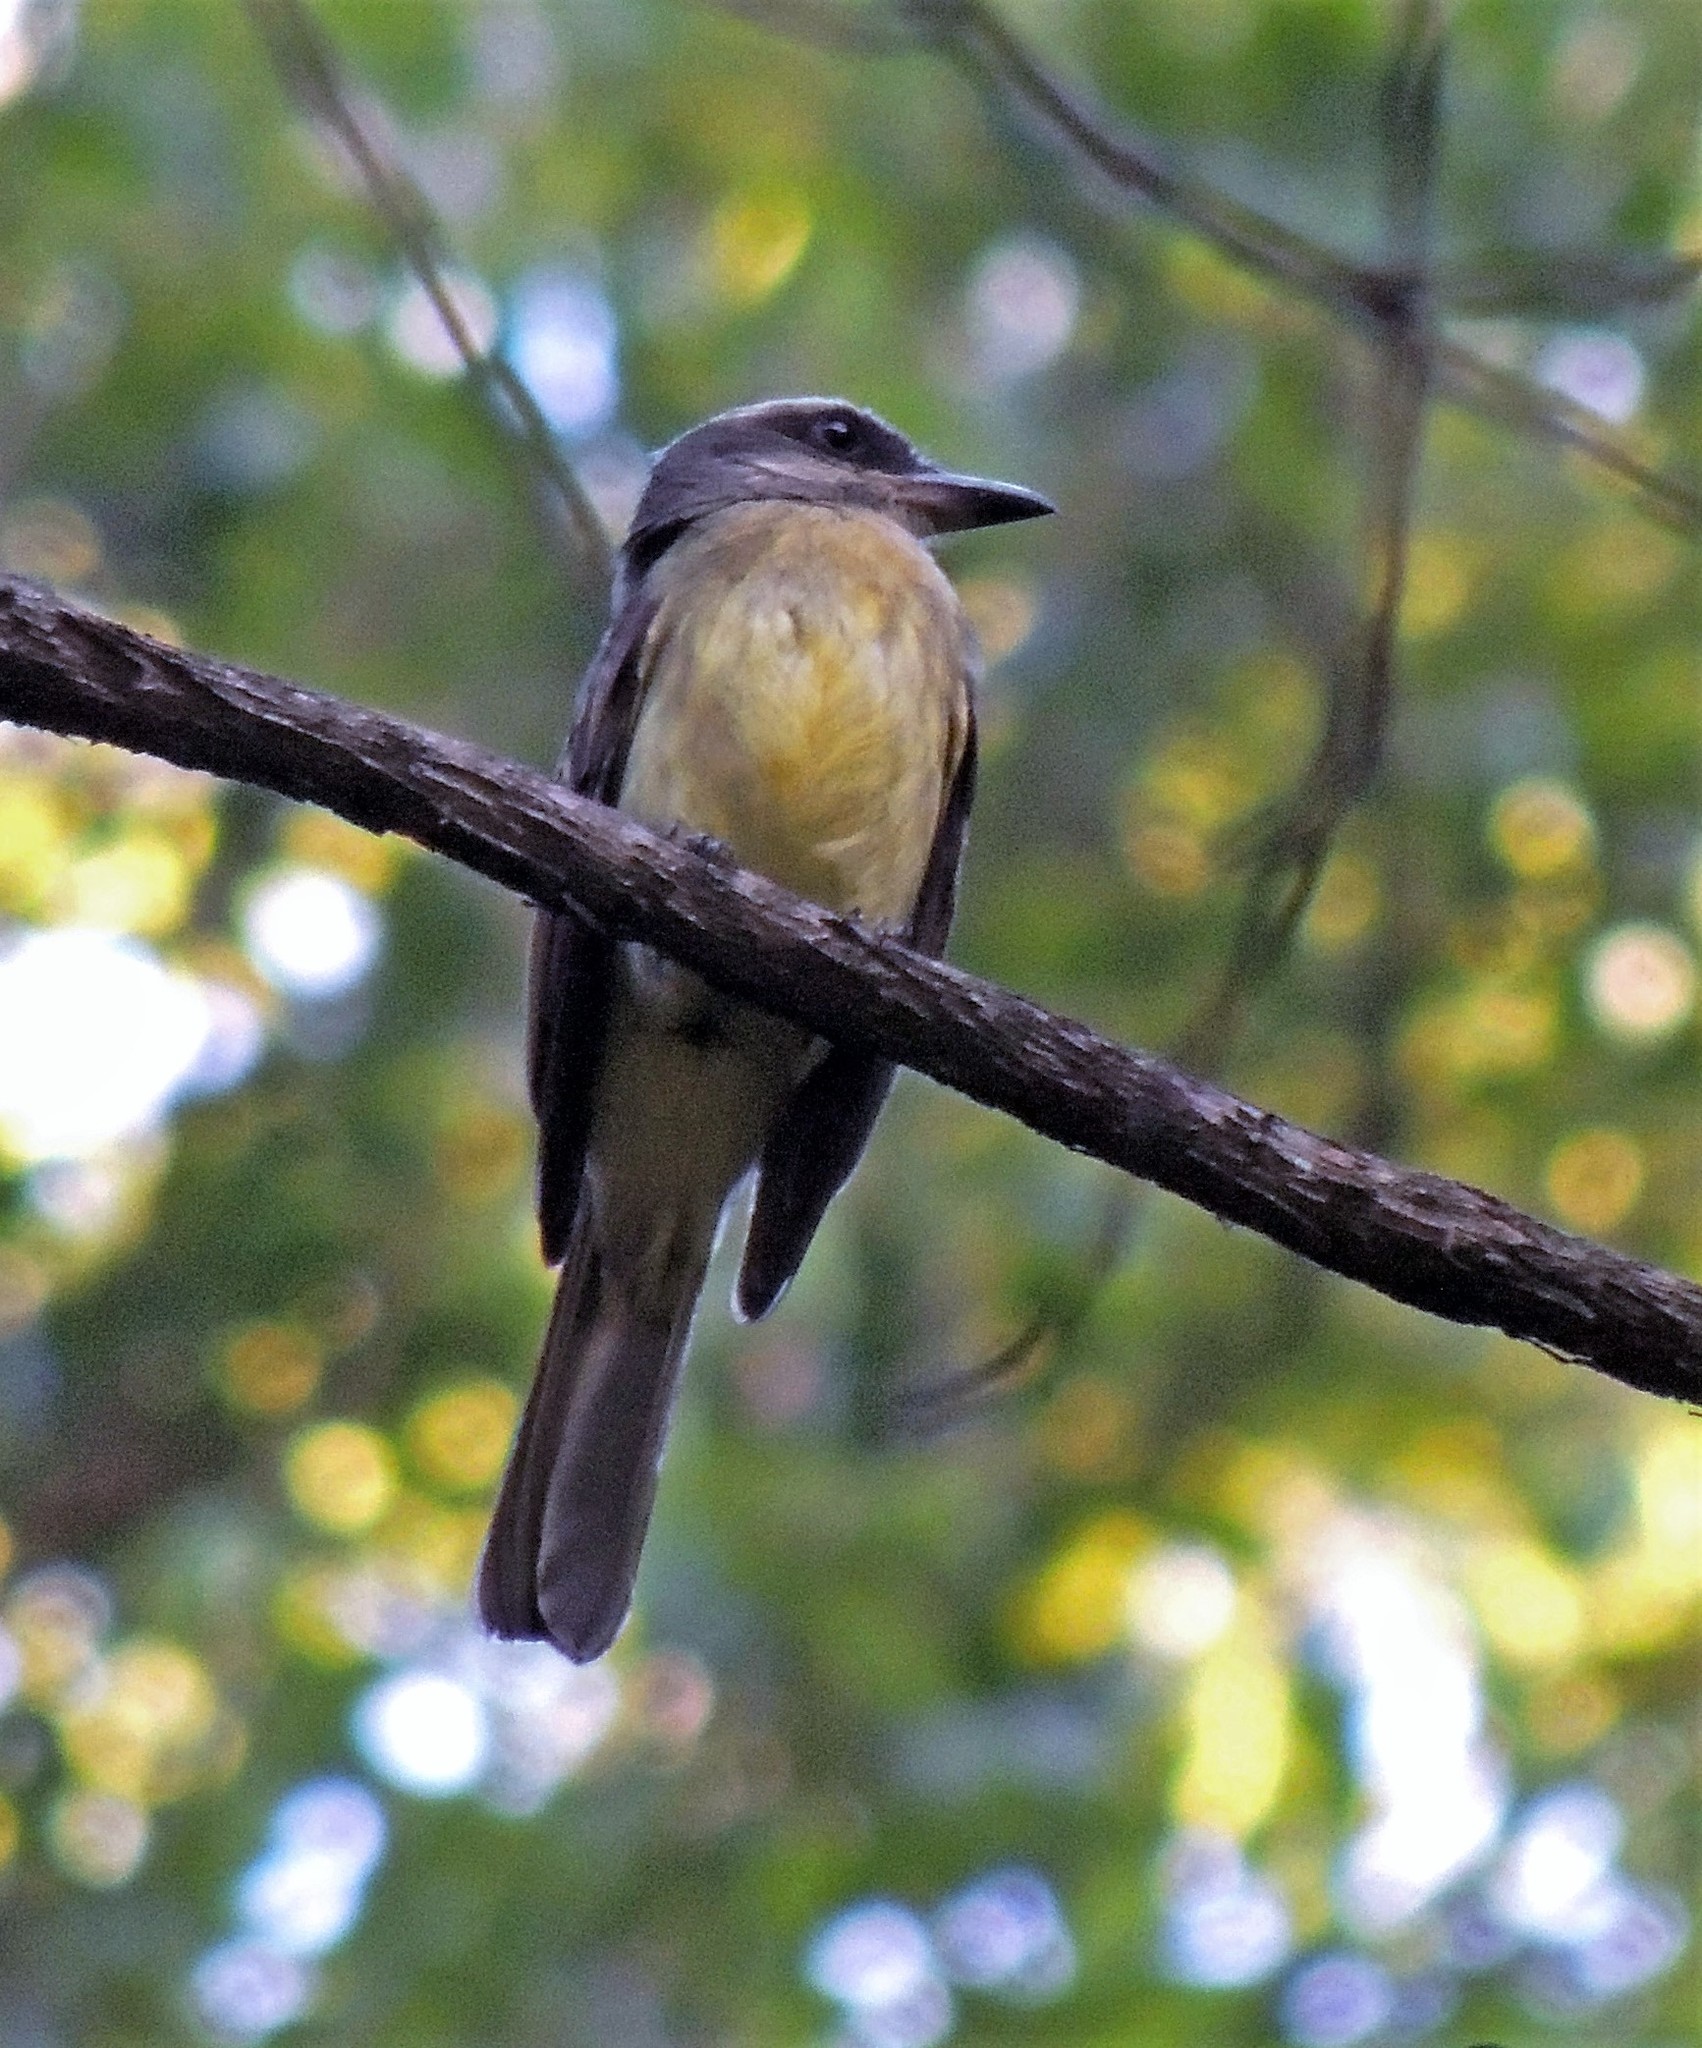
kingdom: Animalia
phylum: Chordata
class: Aves
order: Passeriformes
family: Tyrannidae
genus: Myiodynastes
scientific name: Myiodynastes chrysocephalus
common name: Golden-crowned flycatcher
